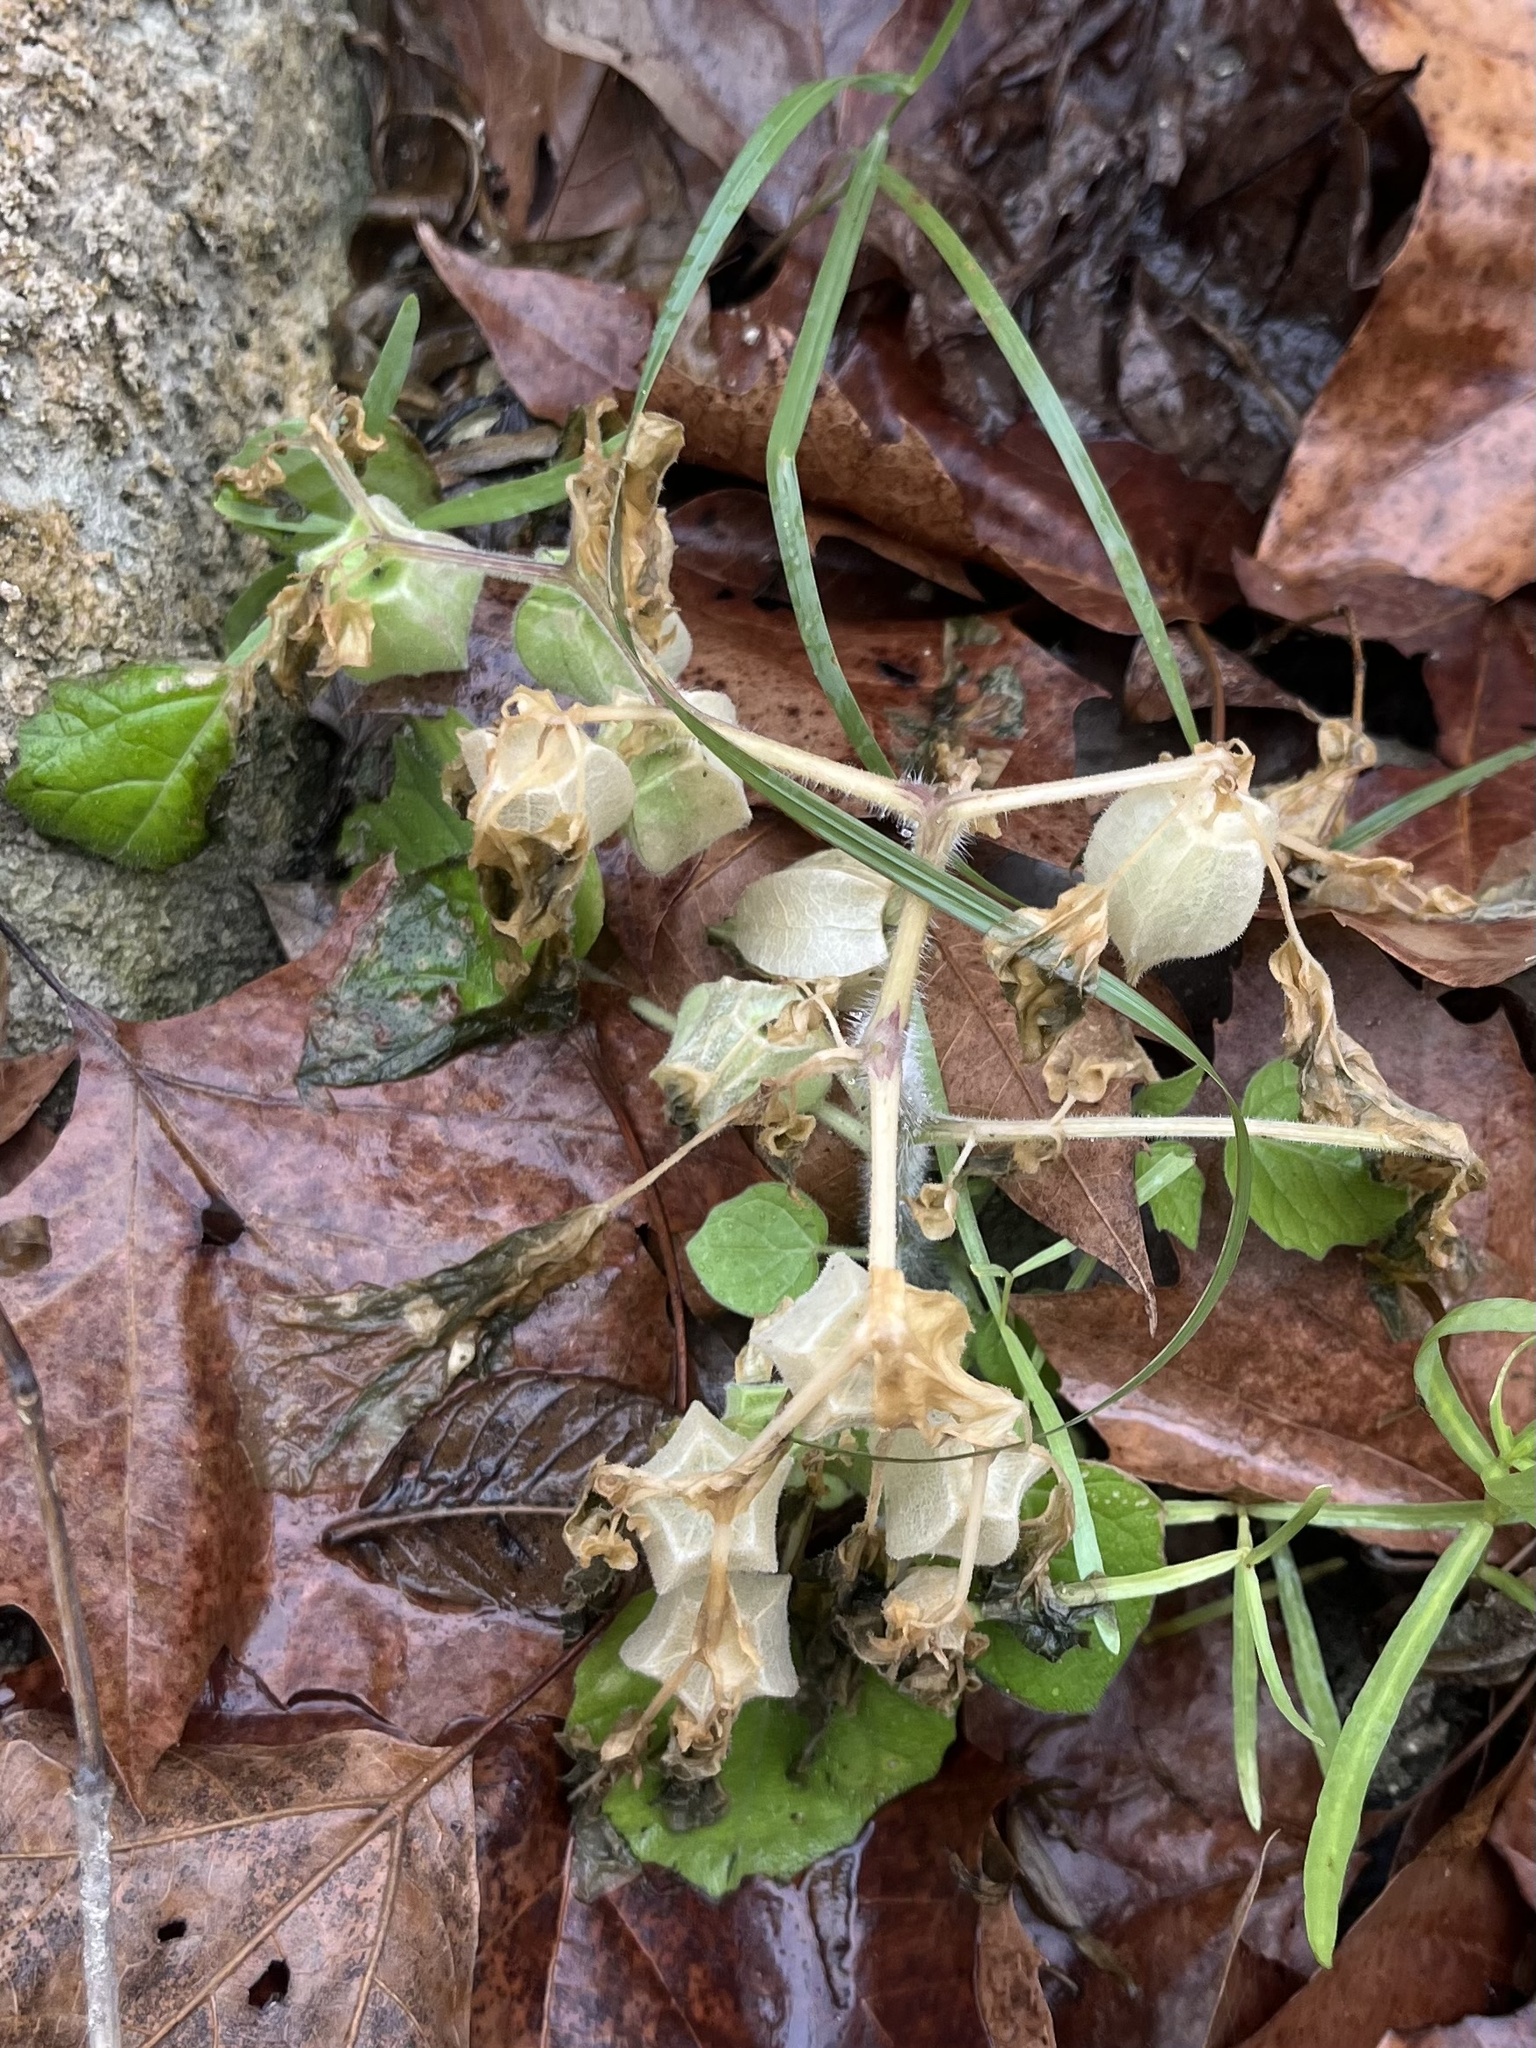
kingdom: Plantae
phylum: Tracheophyta
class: Magnoliopsida
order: Solanales
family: Solanaceae
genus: Physalis
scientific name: Physalis pubescens
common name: Downy ground-cherry
